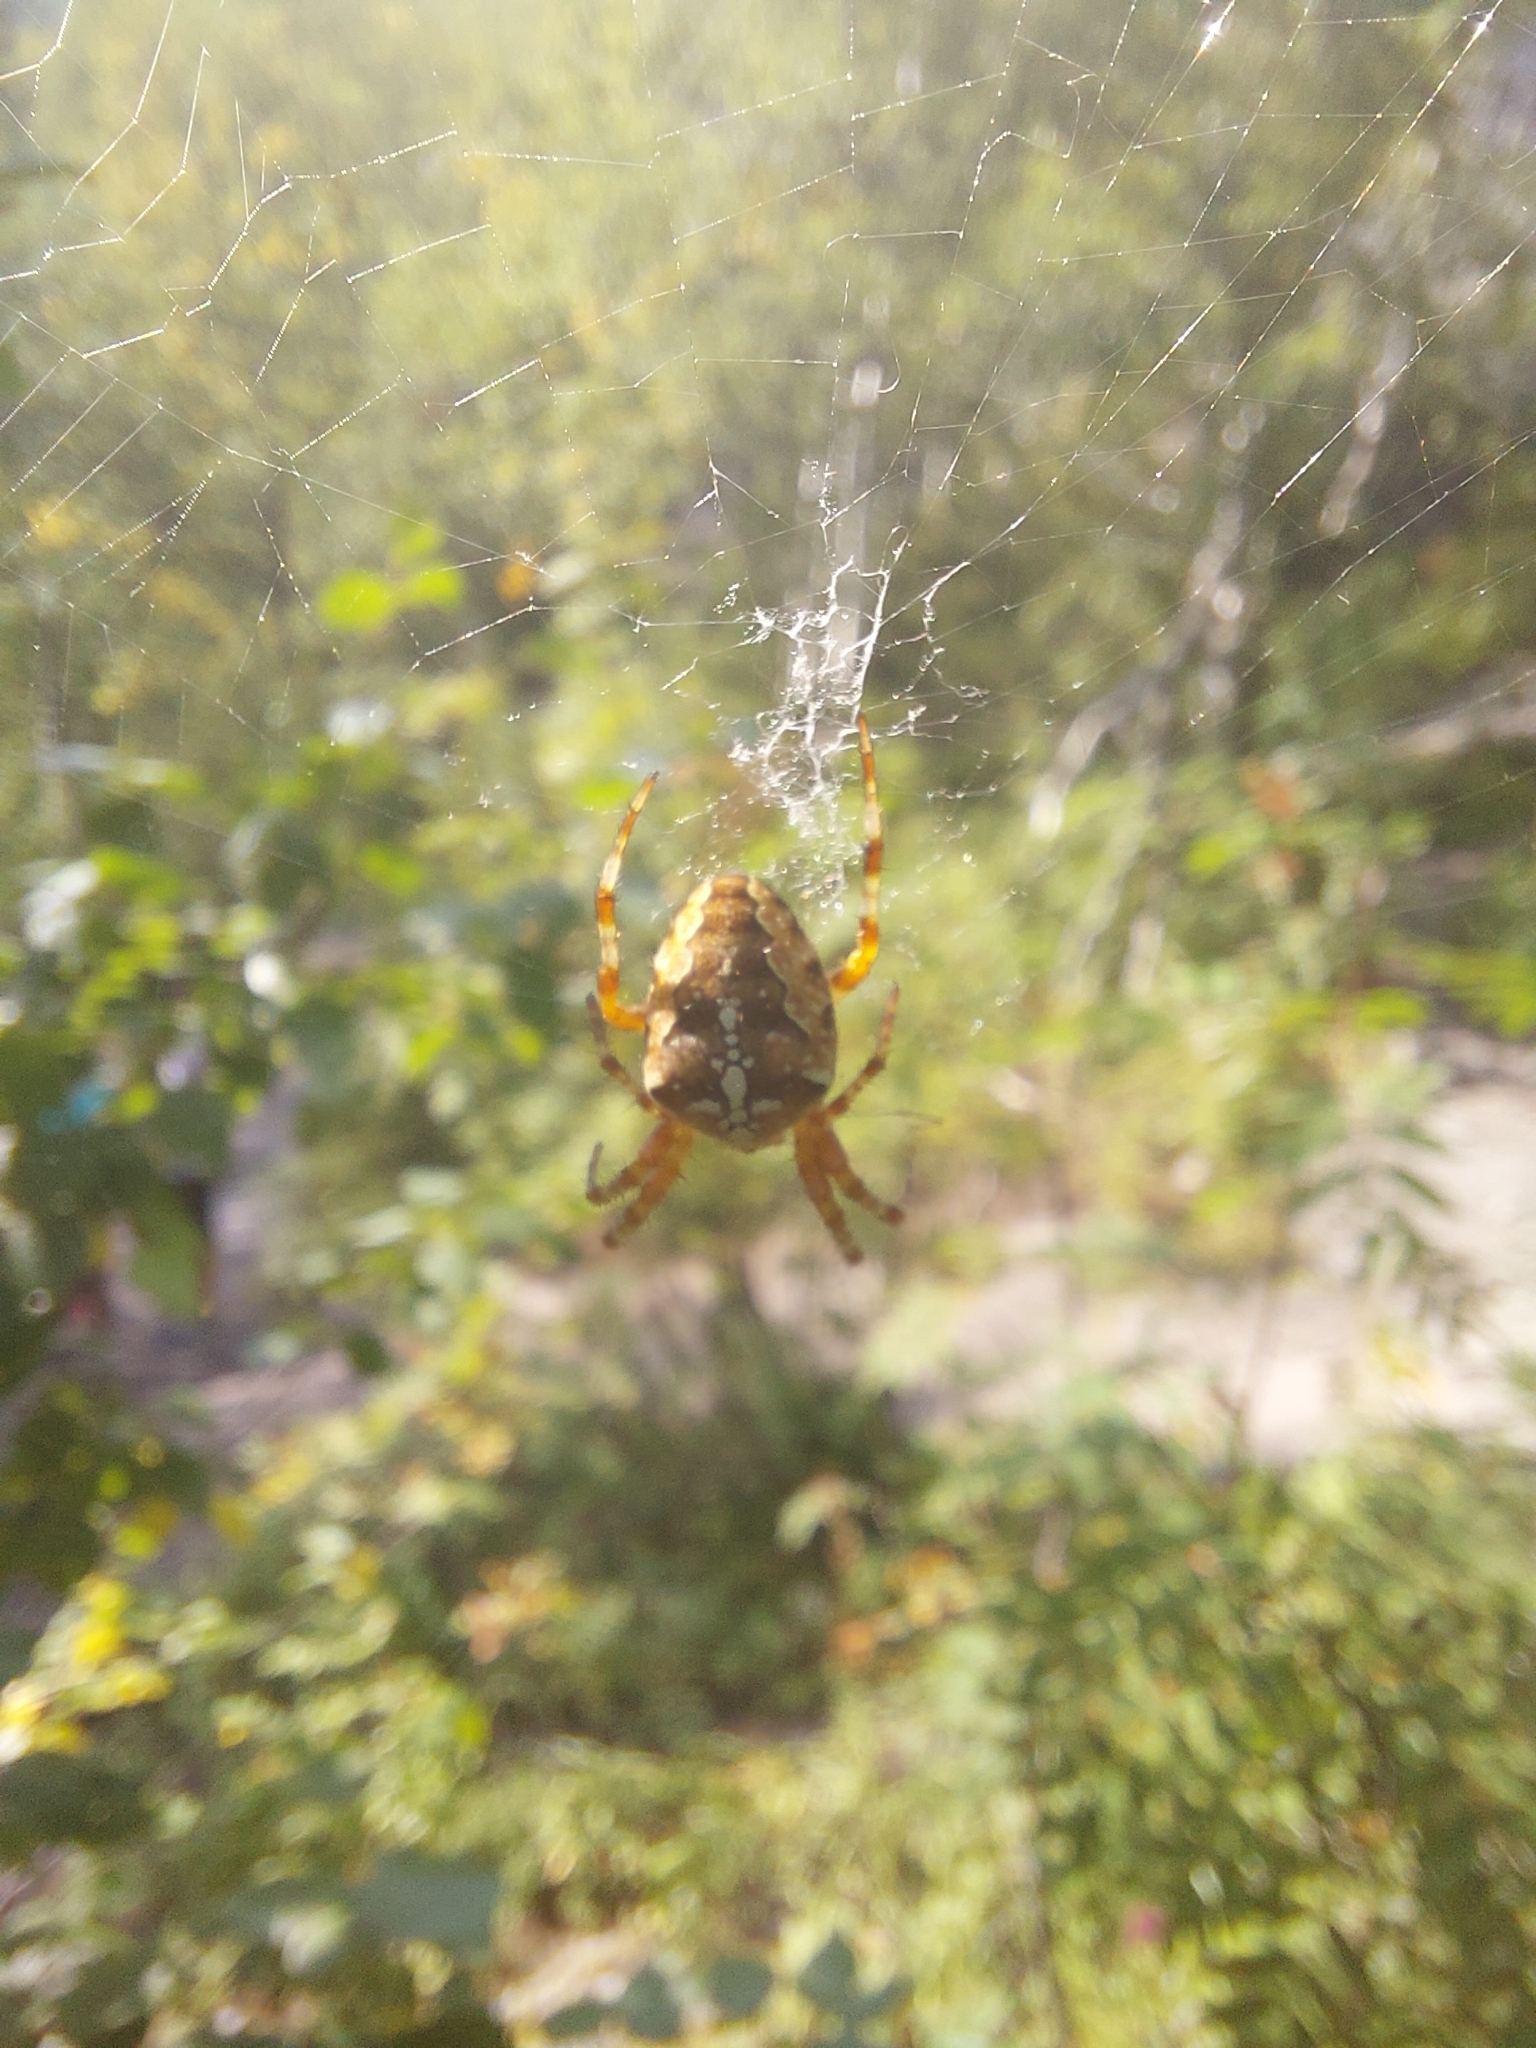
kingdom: Animalia
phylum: Arthropoda
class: Arachnida
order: Araneae
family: Araneidae
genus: Araneus
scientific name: Araneus diadematus
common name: Cross orbweaver
